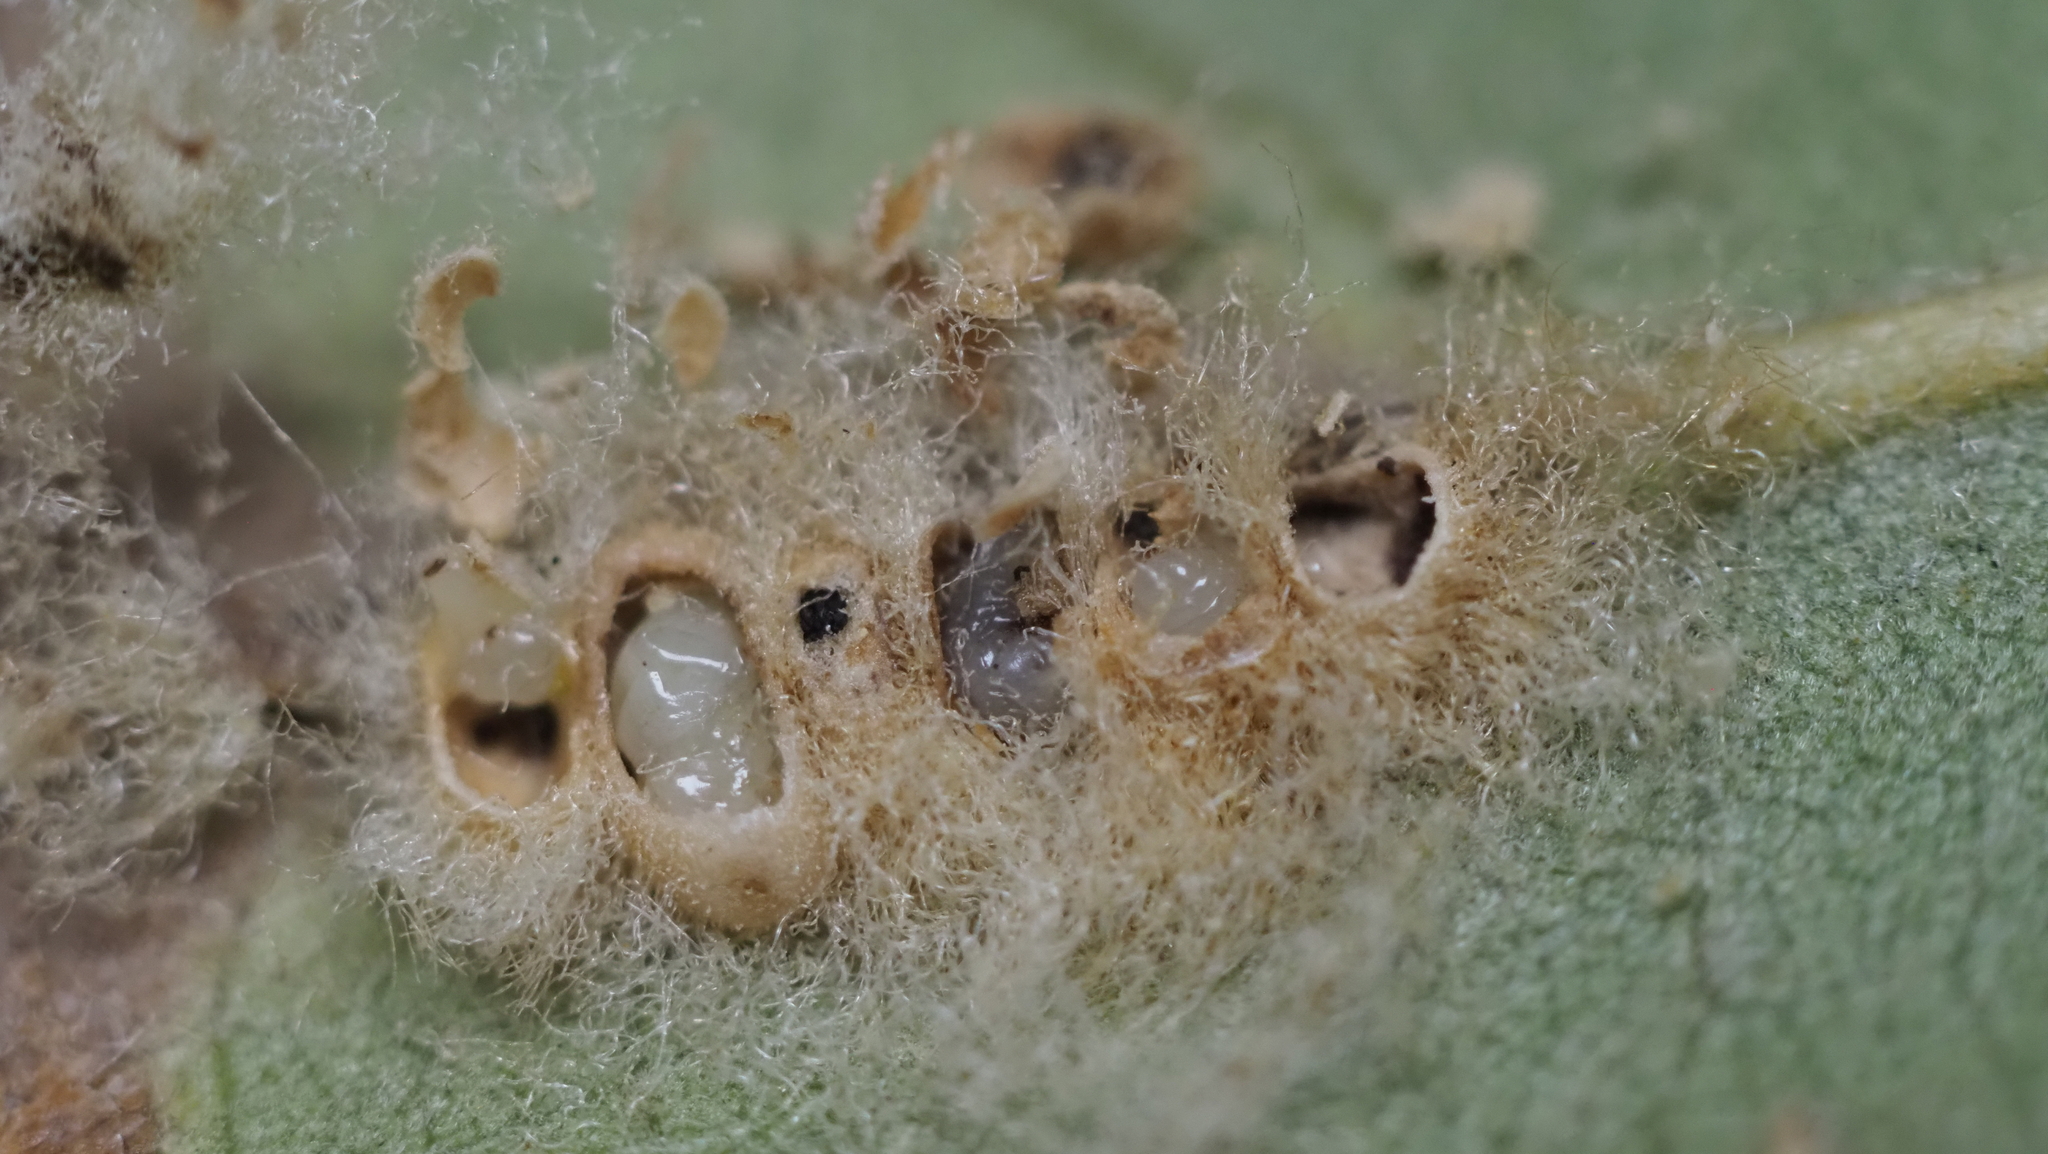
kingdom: Animalia
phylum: Arthropoda
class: Insecta
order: Hymenoptera
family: Cynipidae
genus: Andricus
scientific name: Andricus Druon quercuslanigerum
